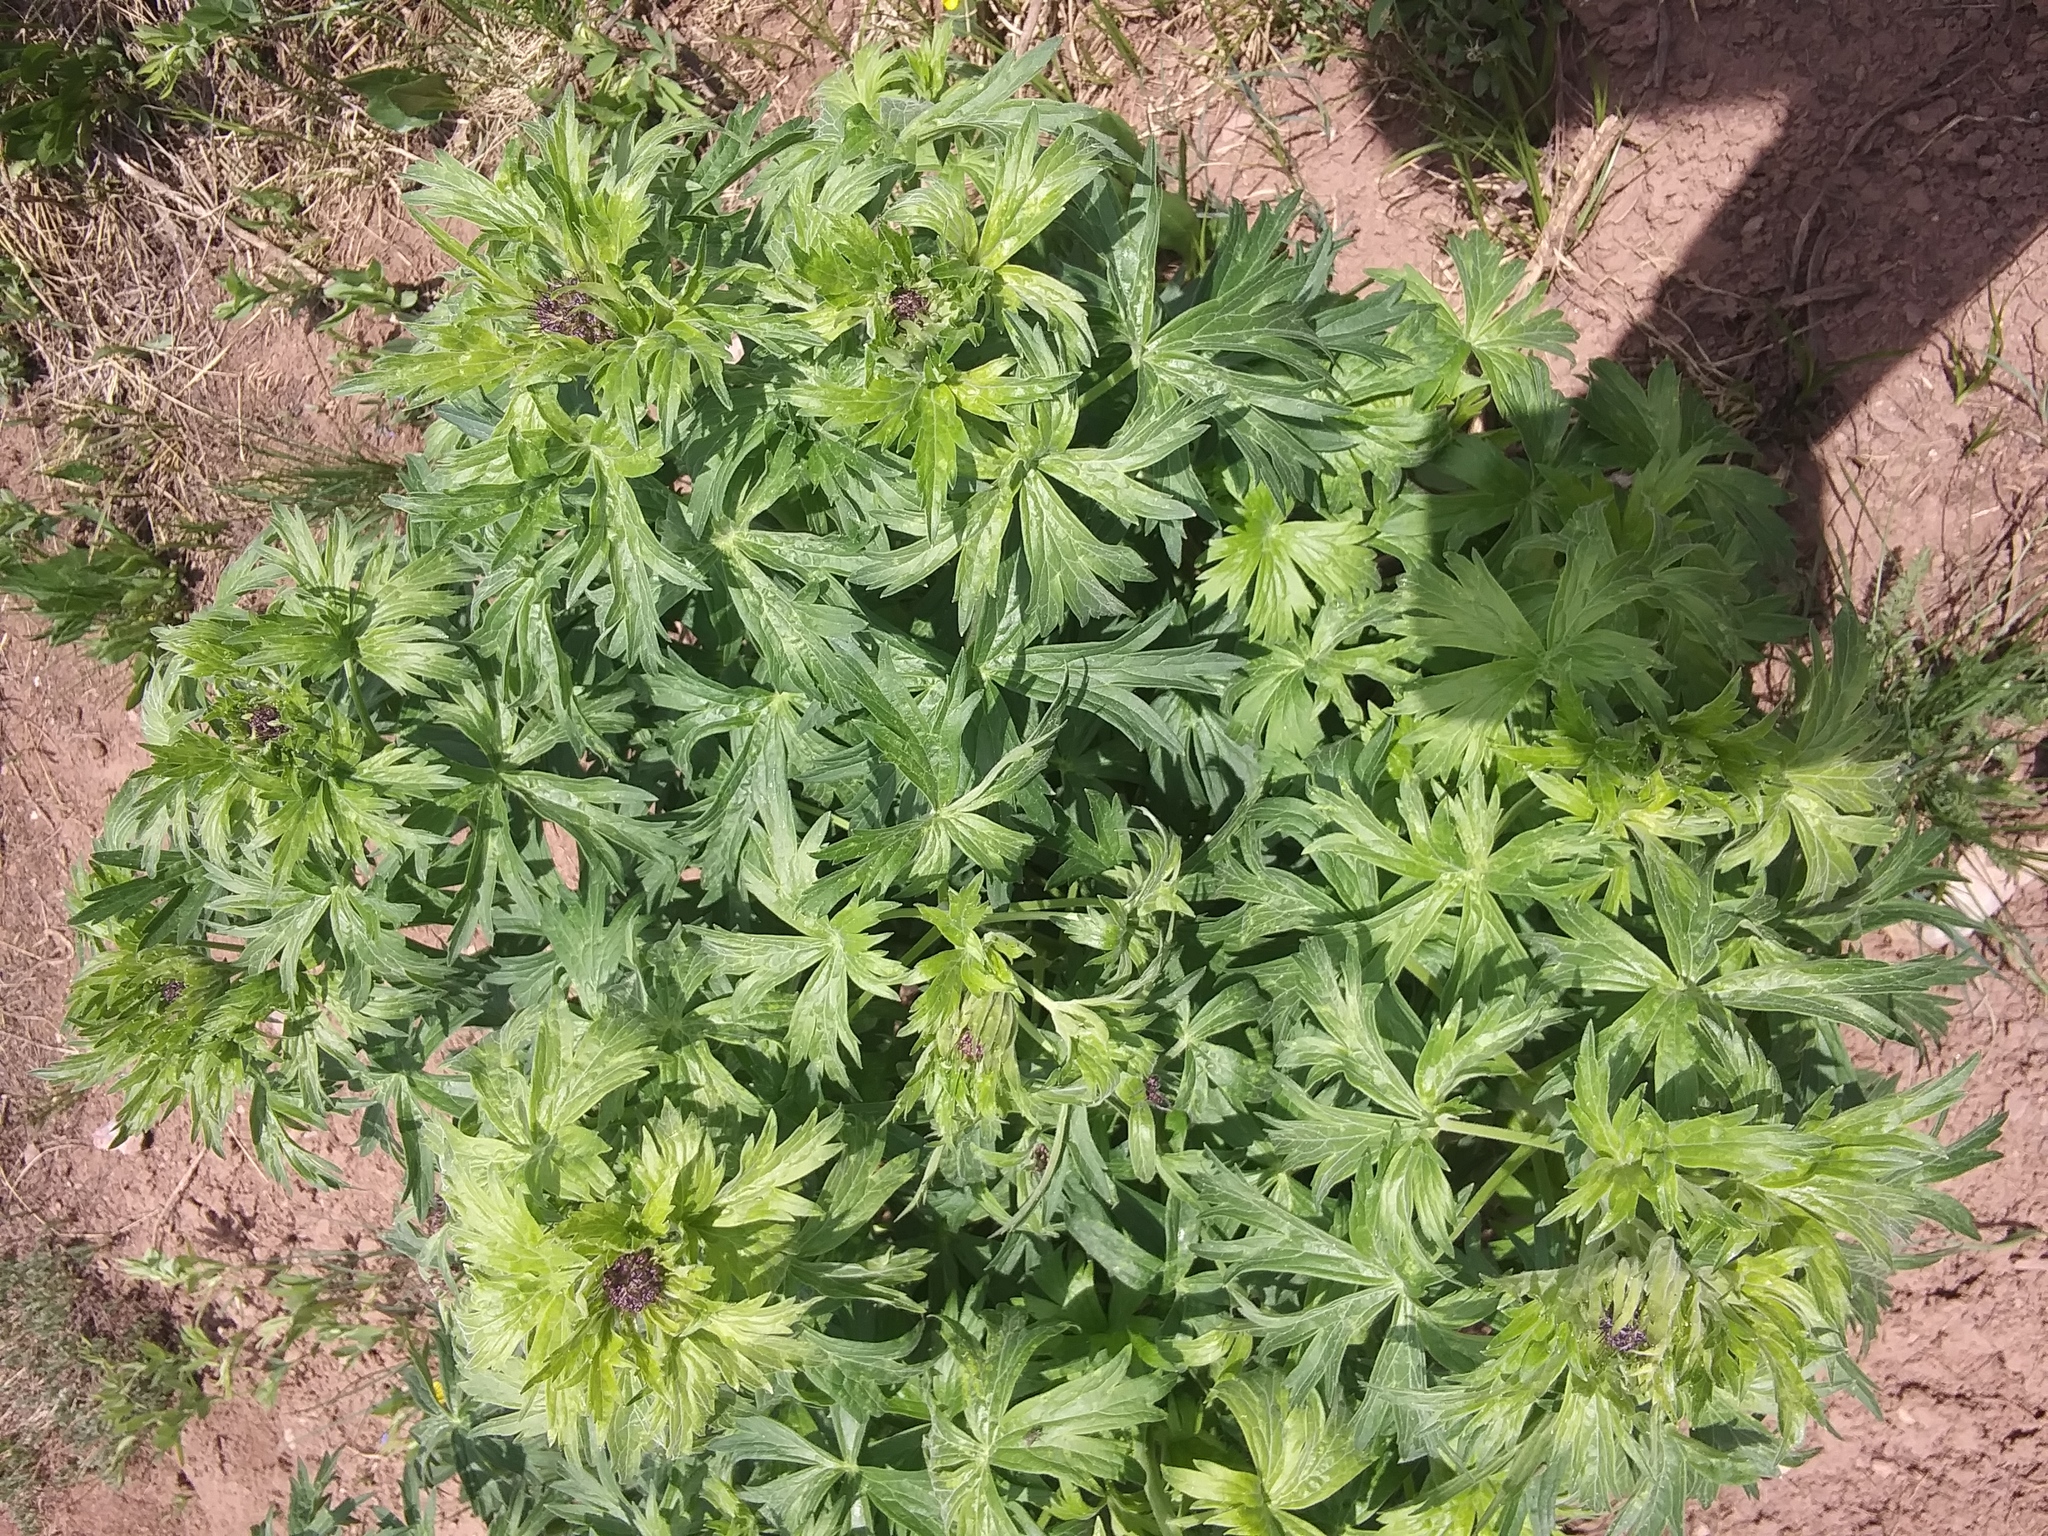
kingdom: Plantae
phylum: Tracheophyta
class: Magnoliopsida
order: Ranunculales
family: Ranunculaceae
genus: Delphinium
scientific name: Delphinium barbeyi
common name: Subalpine larkspur
